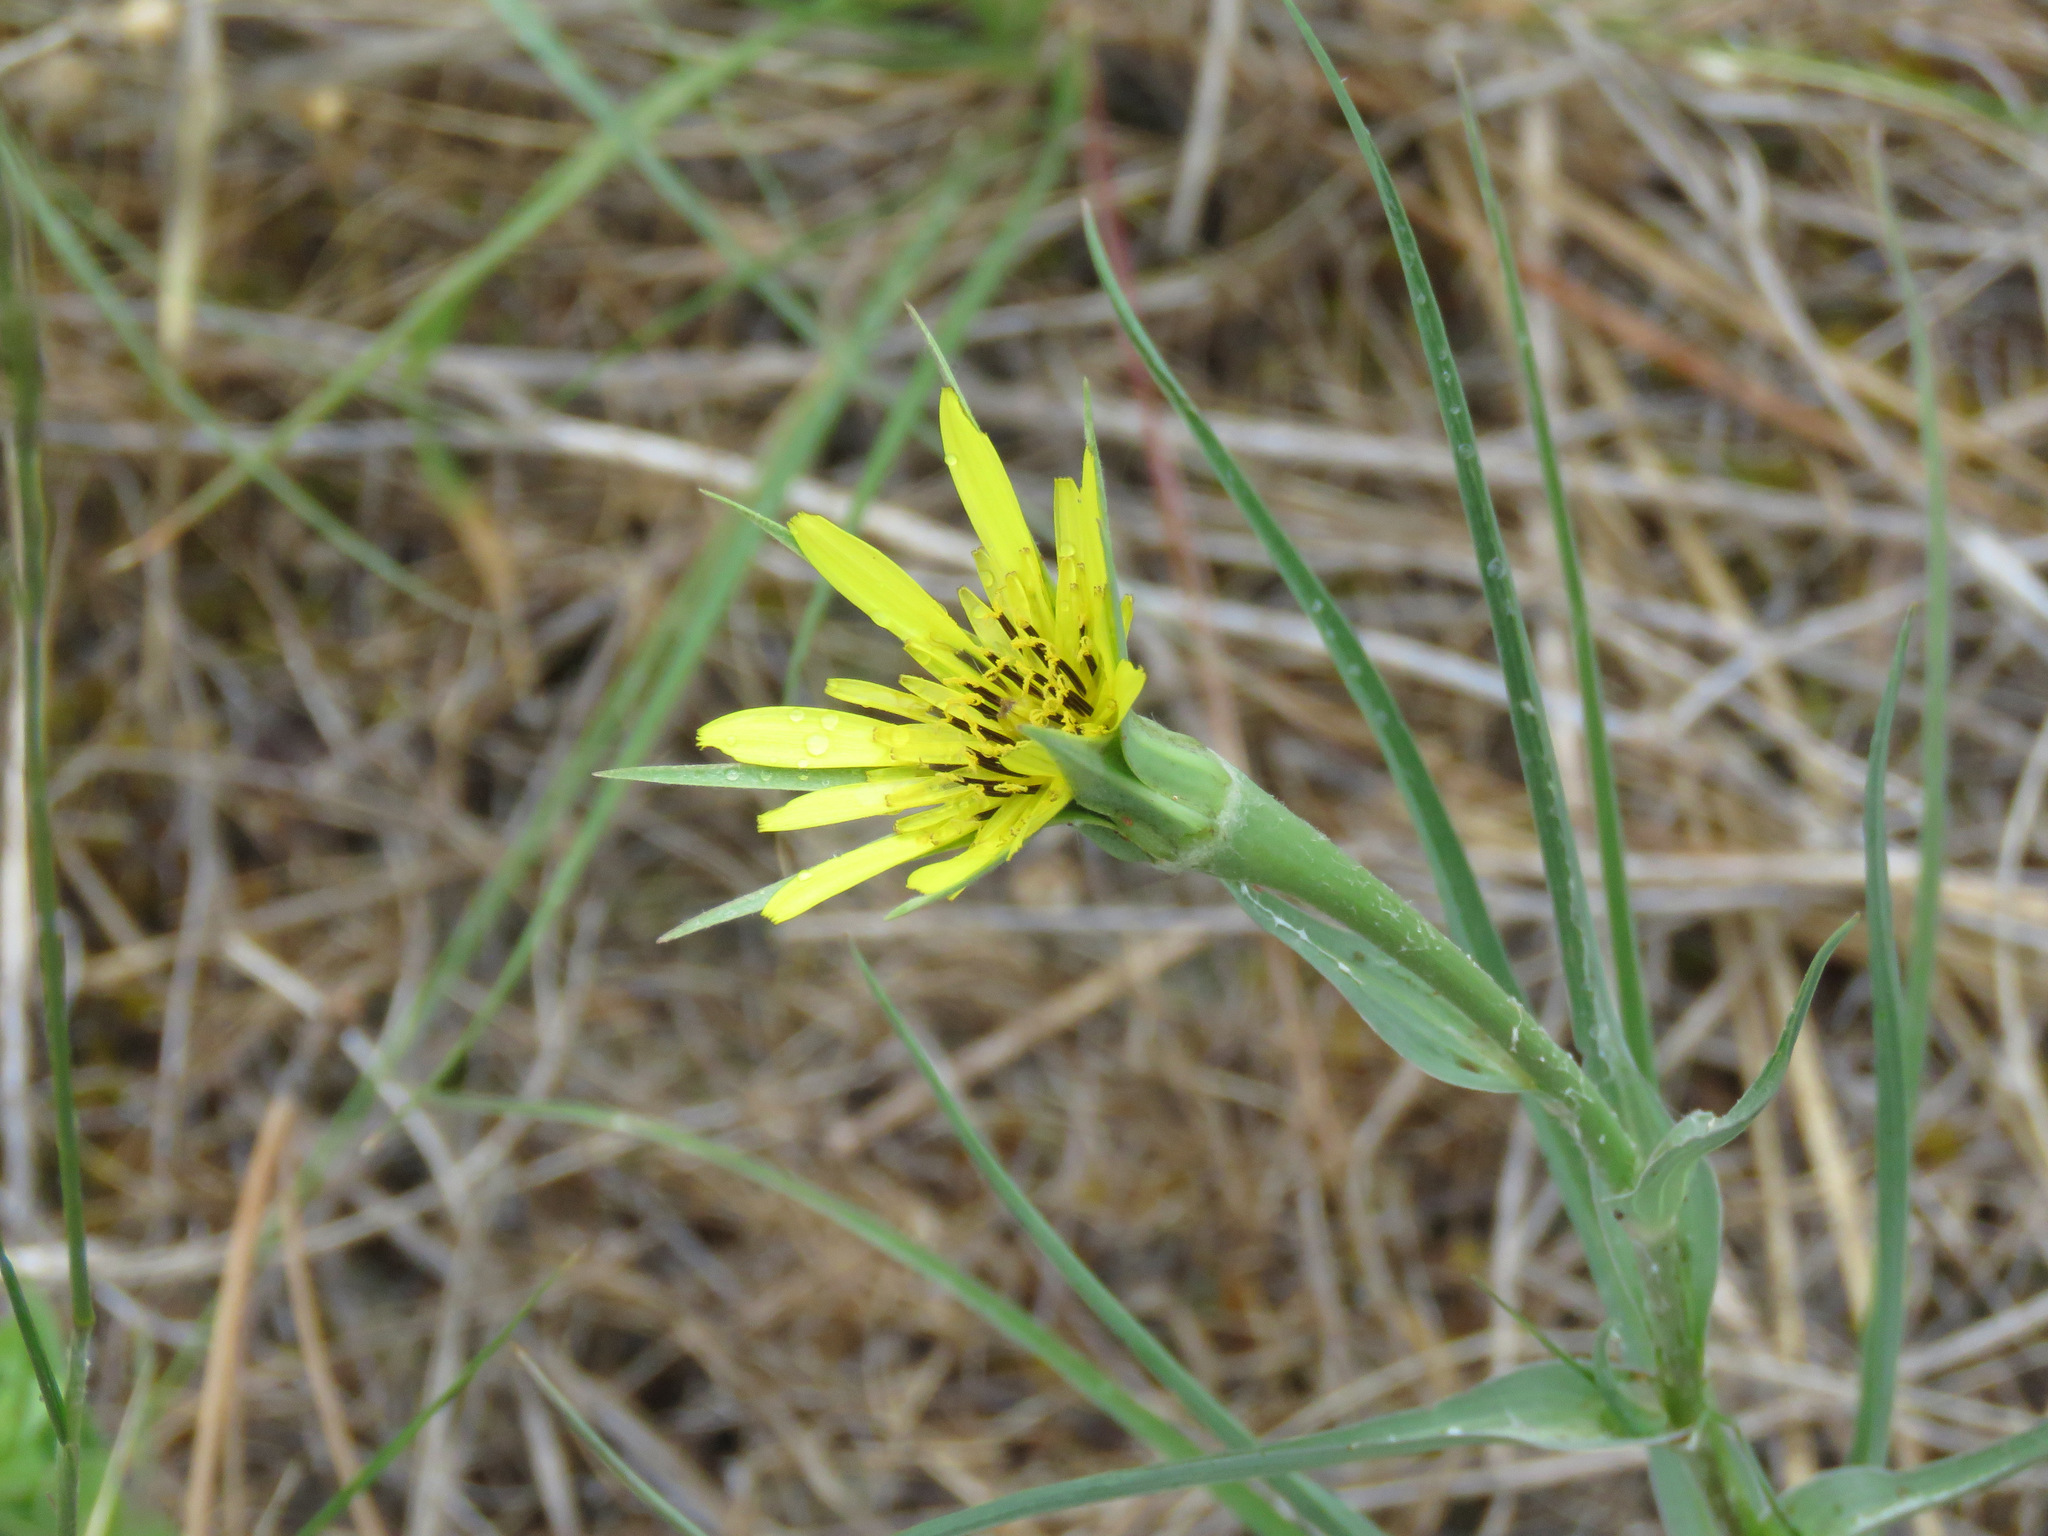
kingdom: Plantae
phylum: Tracheophyta
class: Magnoliopsida
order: Asterales
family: Asteraceae
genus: Tragopogon
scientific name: Tragopogon dubius
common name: Yellow salsify
